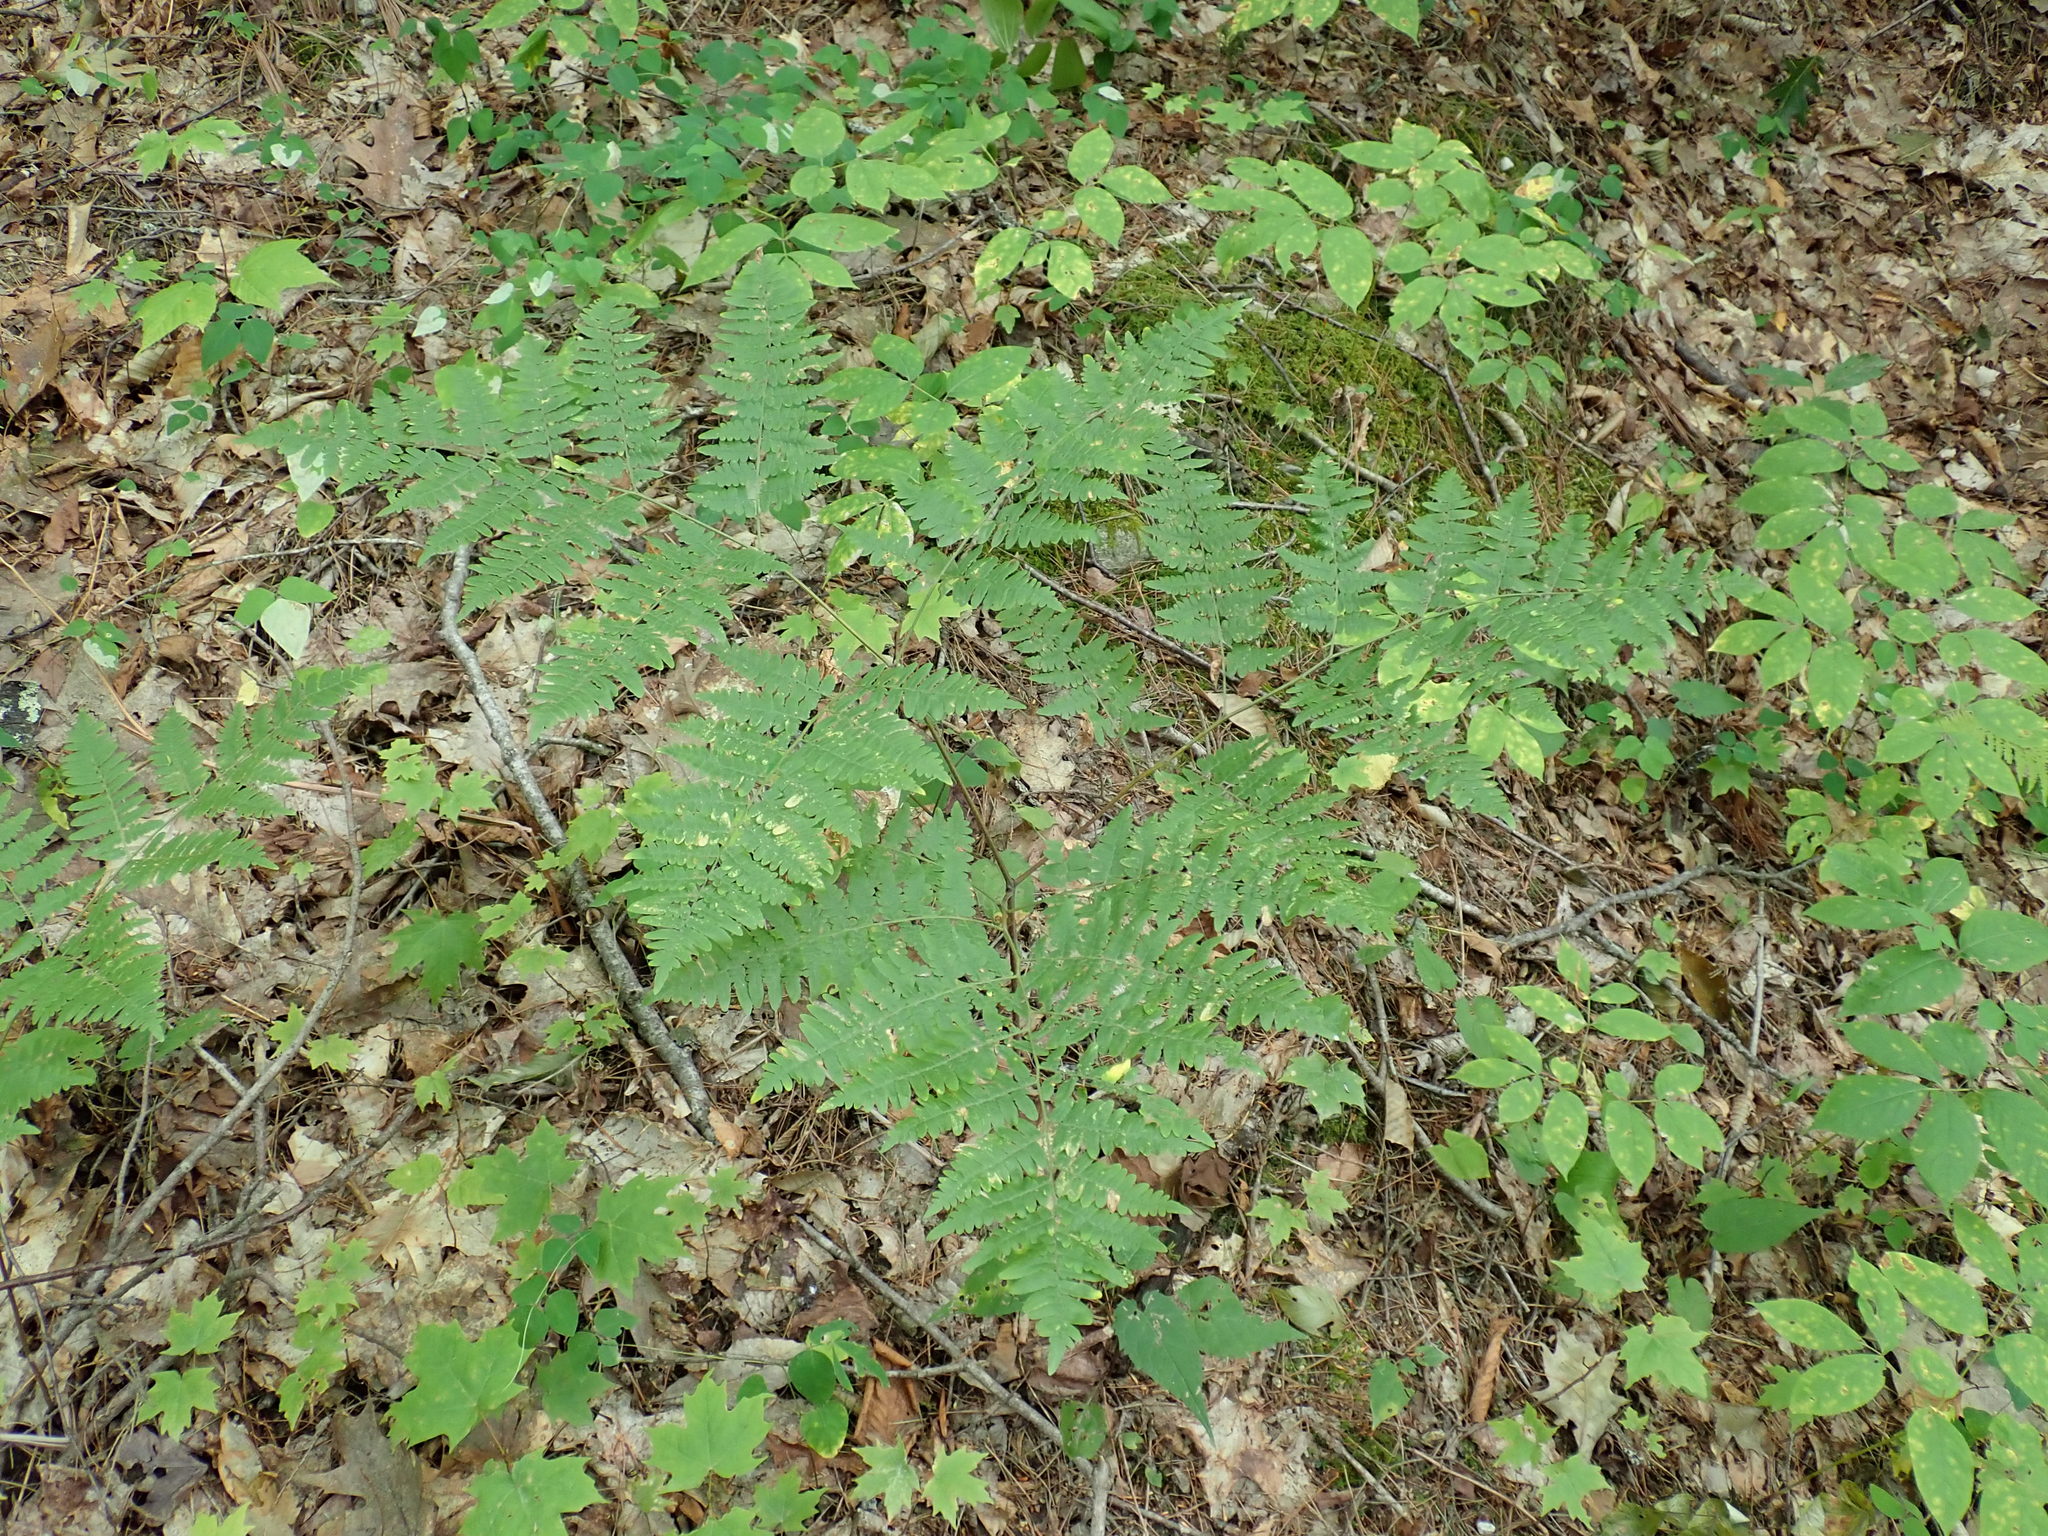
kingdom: Plantae
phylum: Tracheophyta
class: Polypodiopsida
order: Polypodiales
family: Dennstaedtiaceae
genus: Pteridium
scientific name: Pteridium aquilinum
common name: Bracken
